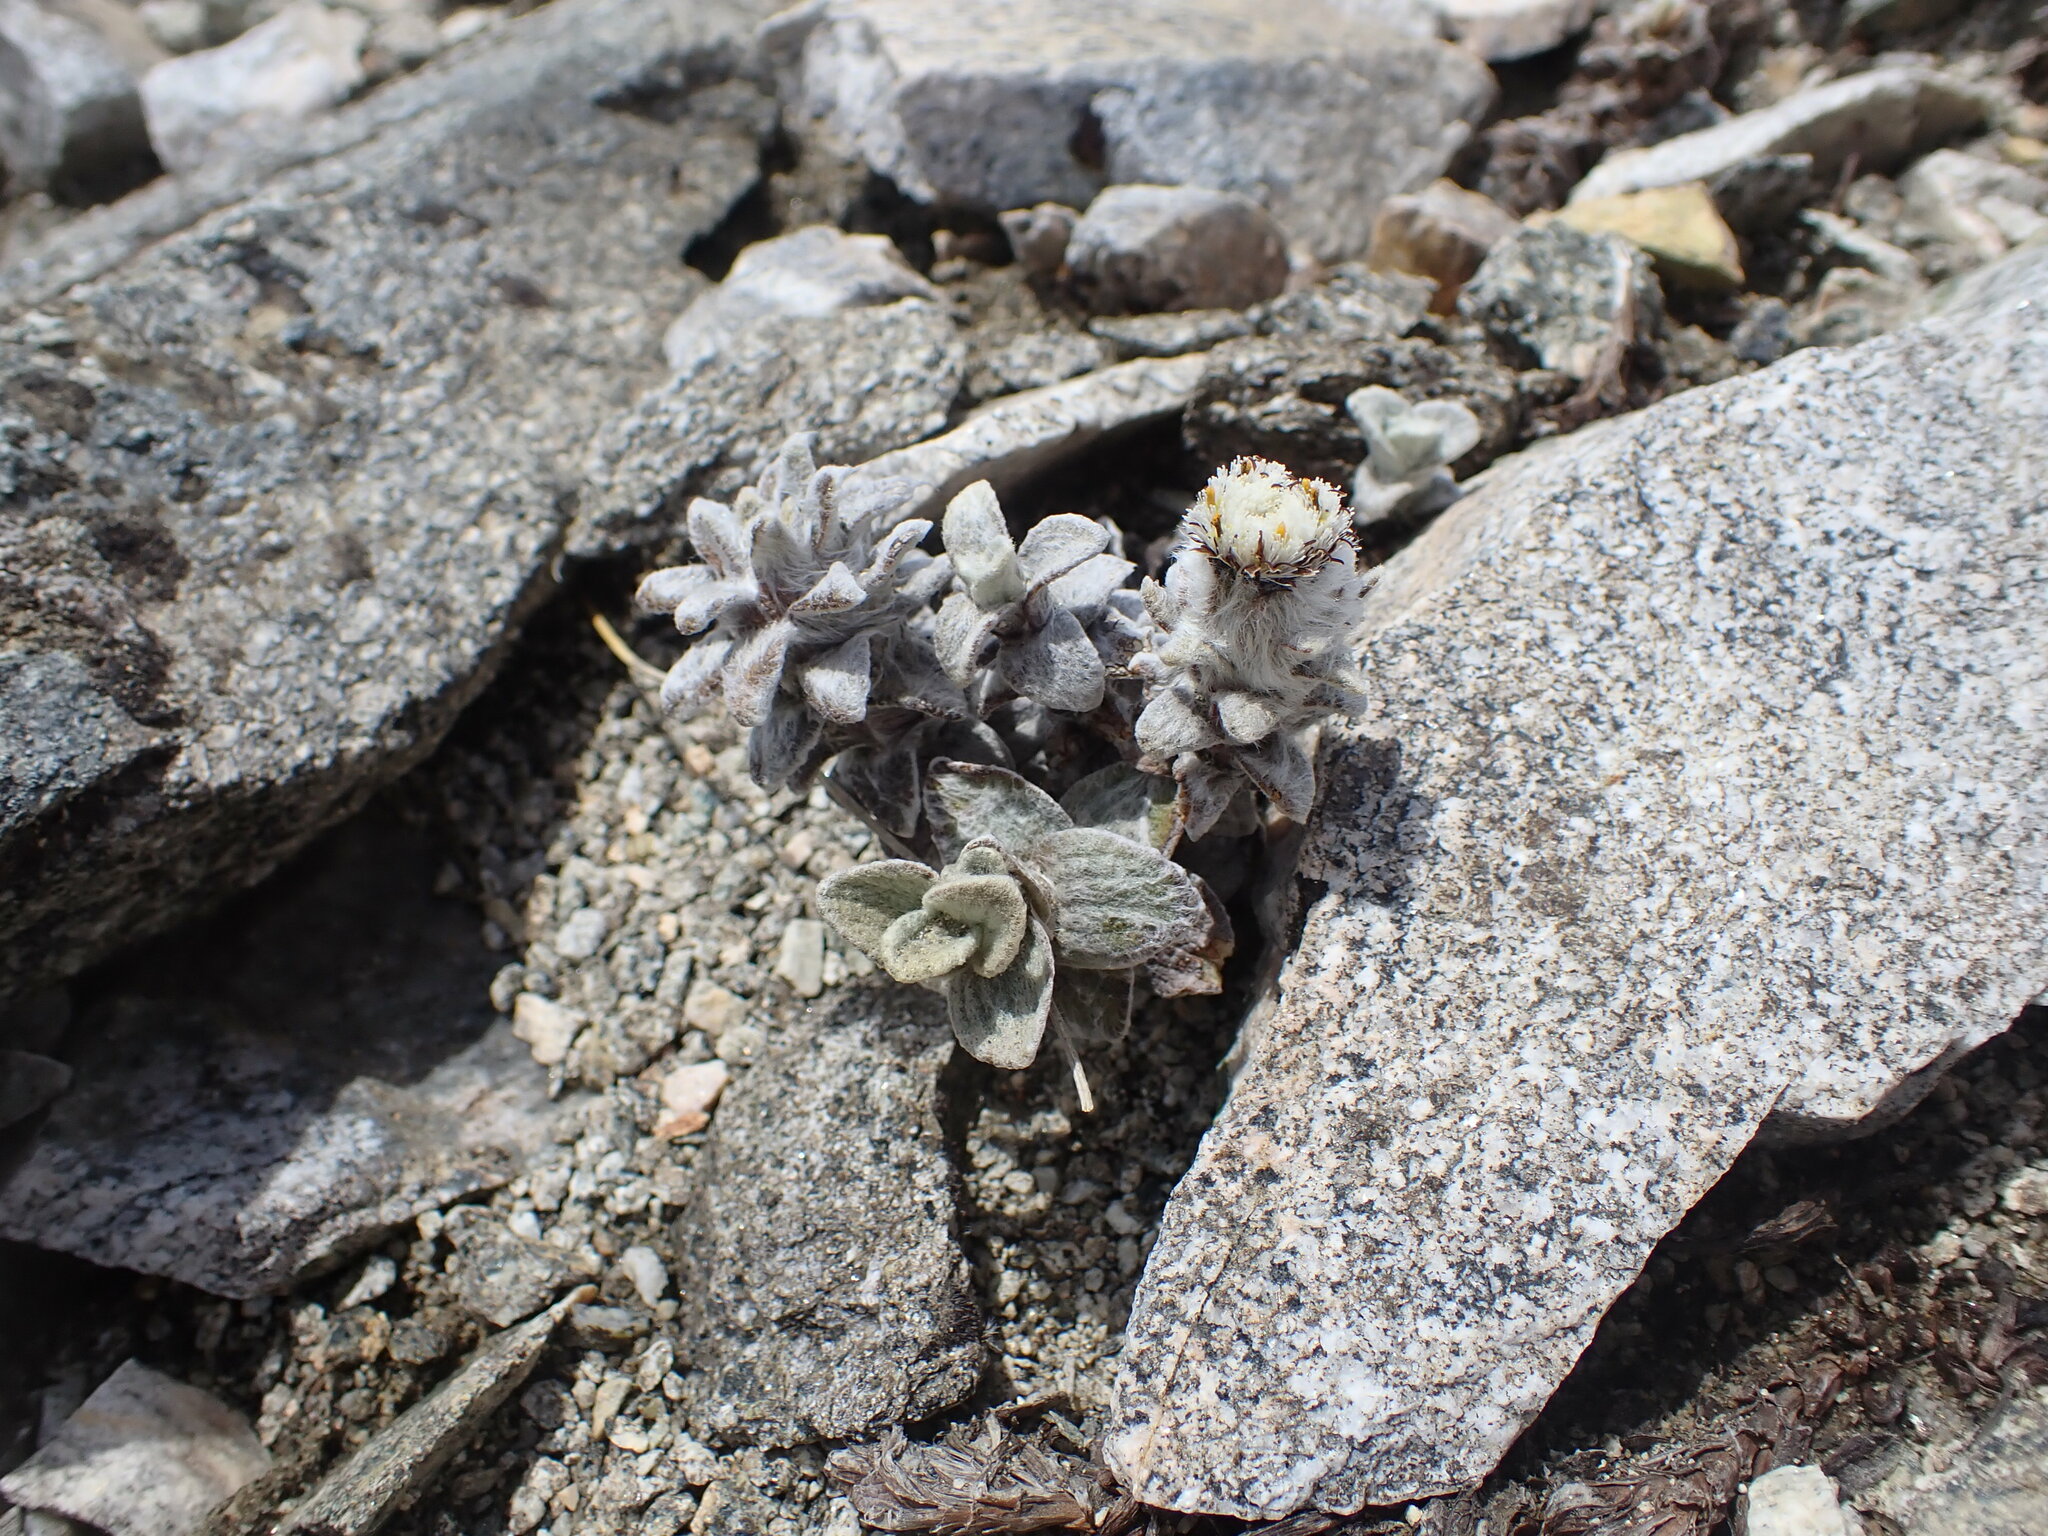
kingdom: Plantae
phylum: Tracheophyta
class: Magnoliopsida
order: Asterales
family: Asteraceae
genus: Haastia
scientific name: Haastia sinclairii
